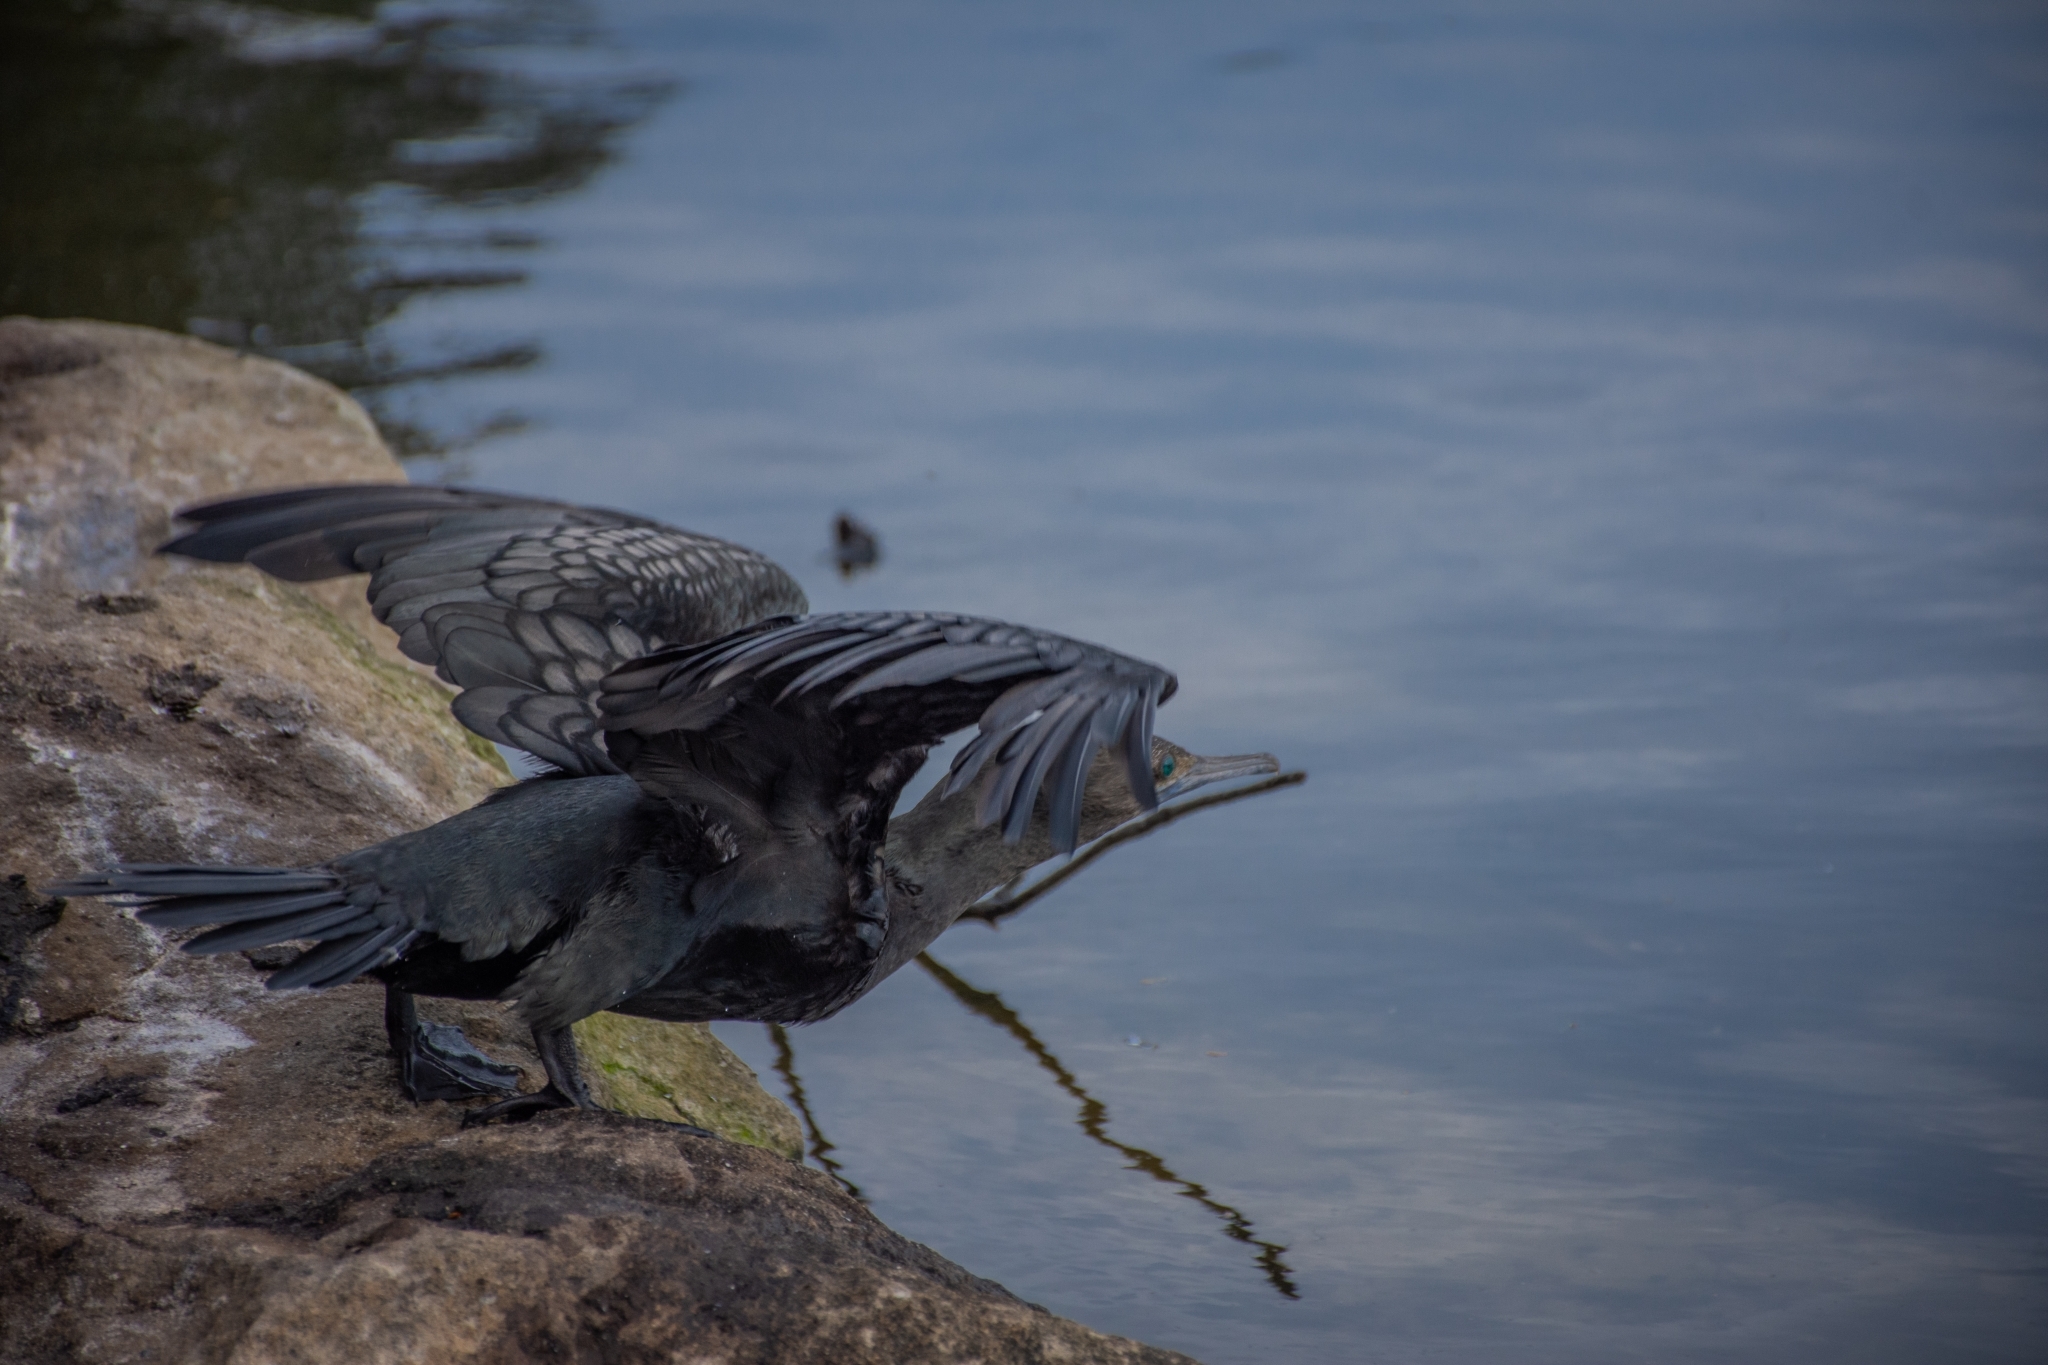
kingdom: Animalia
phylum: Chordata
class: Aves
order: Suliformes
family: Phalacrocoracidae
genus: Phalacrocorax
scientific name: Phalacrocorax sulcirostris
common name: Little black cormorant
